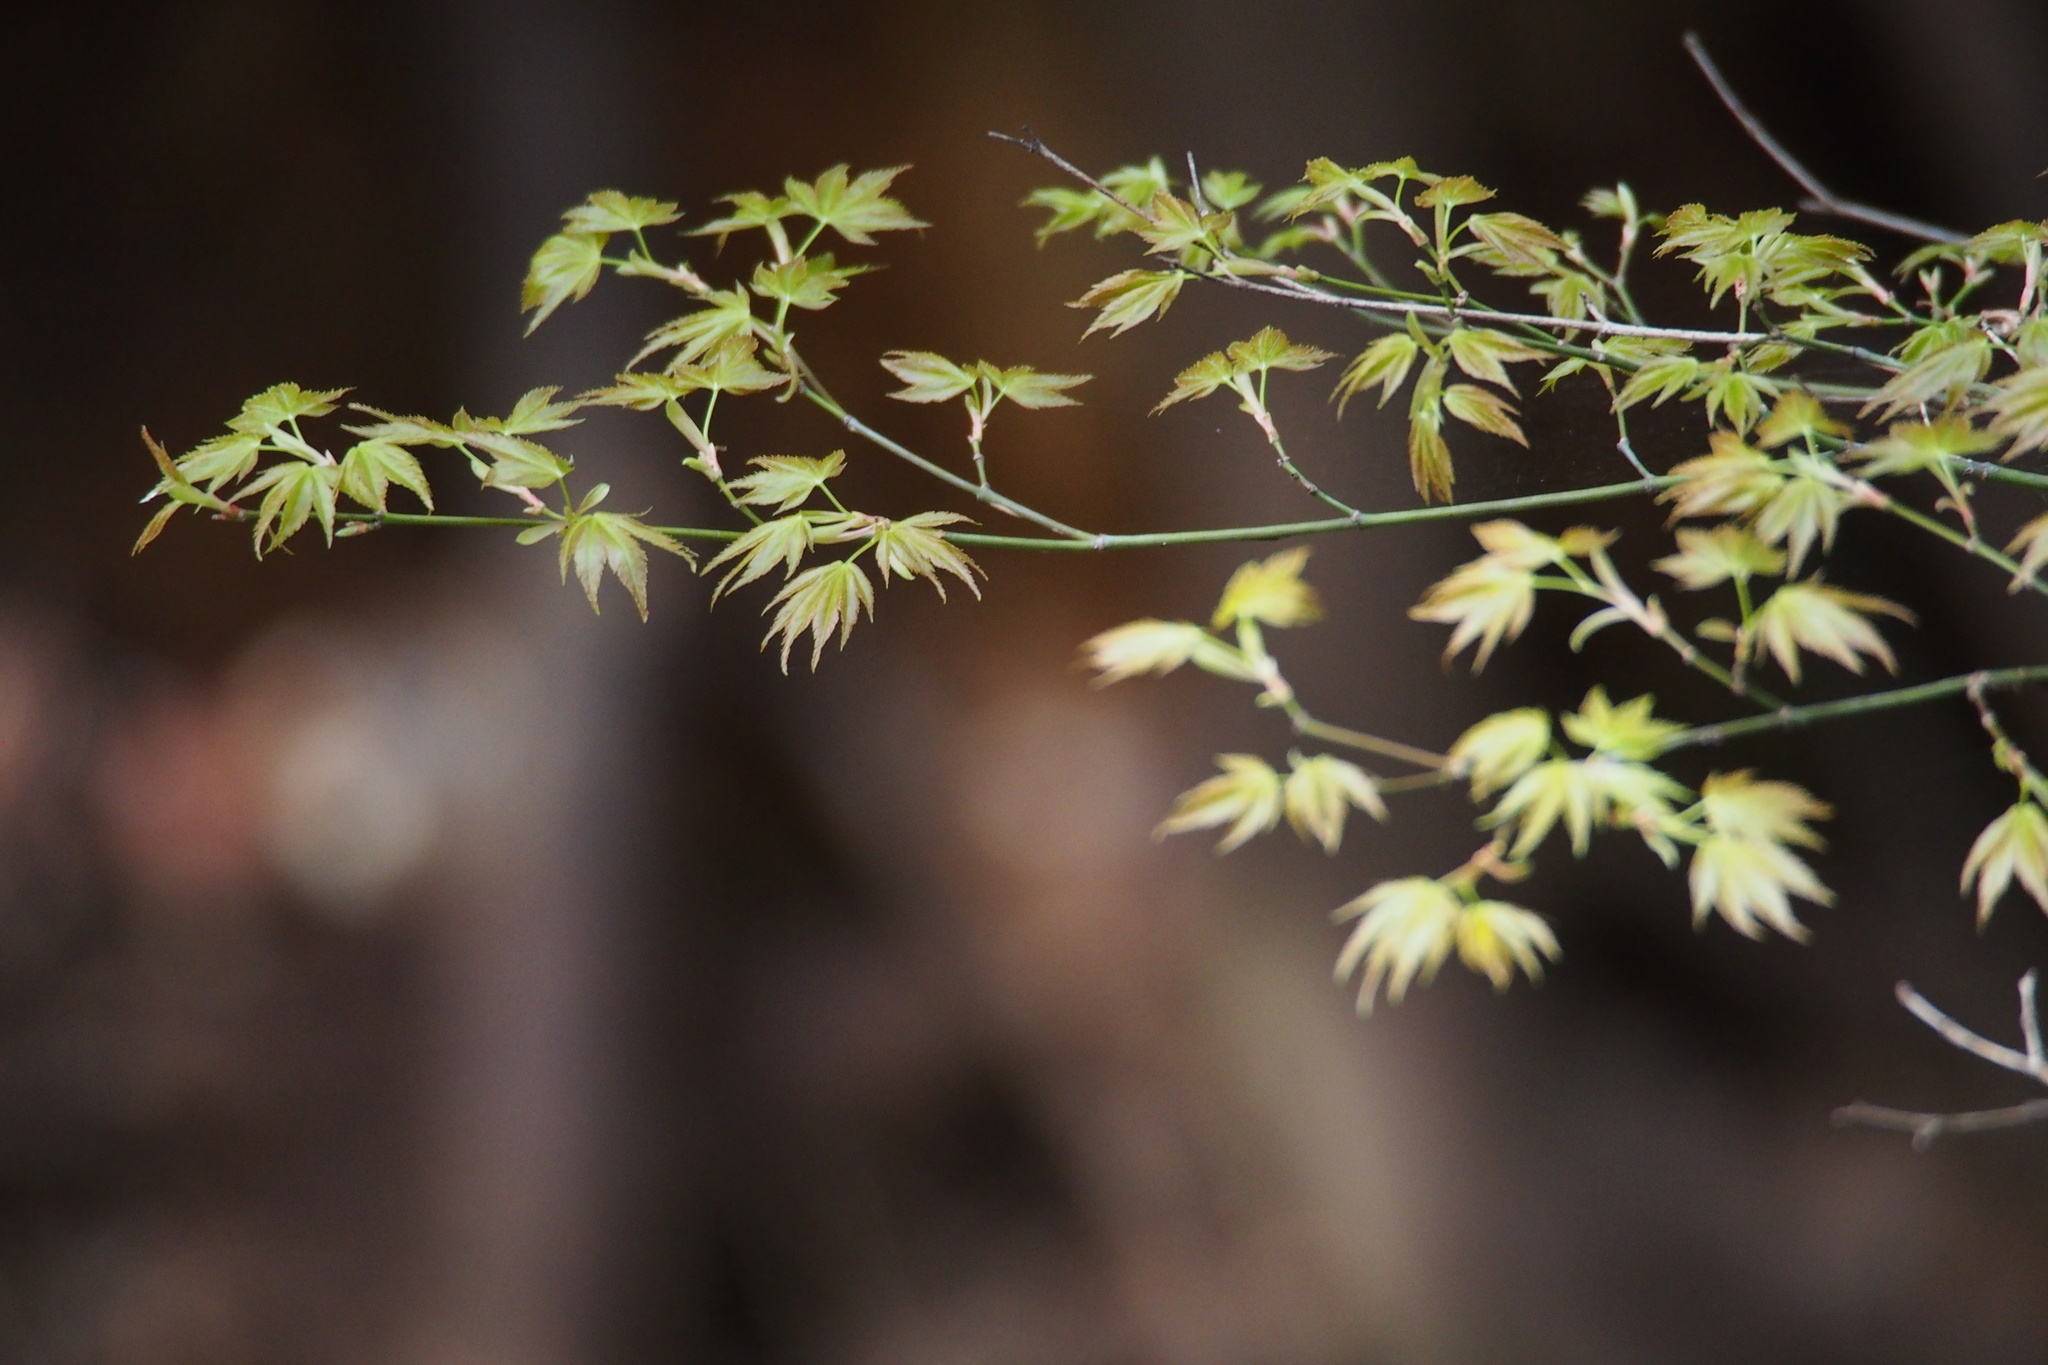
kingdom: Plantae
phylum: Tracheophyta
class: Magnoliopsida
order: Sapindales
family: Sapindaceae
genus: Acer
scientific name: Acer palmatum
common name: Japanese maple
